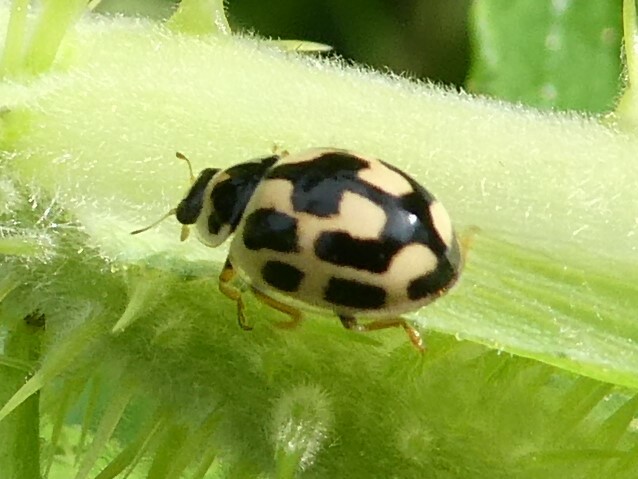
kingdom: Animalia
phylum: Arthropoda
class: Insecta
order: Coleoptera
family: Coccinellidae
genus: Propylaea
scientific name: Propylaea quatuordecimpunctata
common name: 14-spotted ladybird beetle
